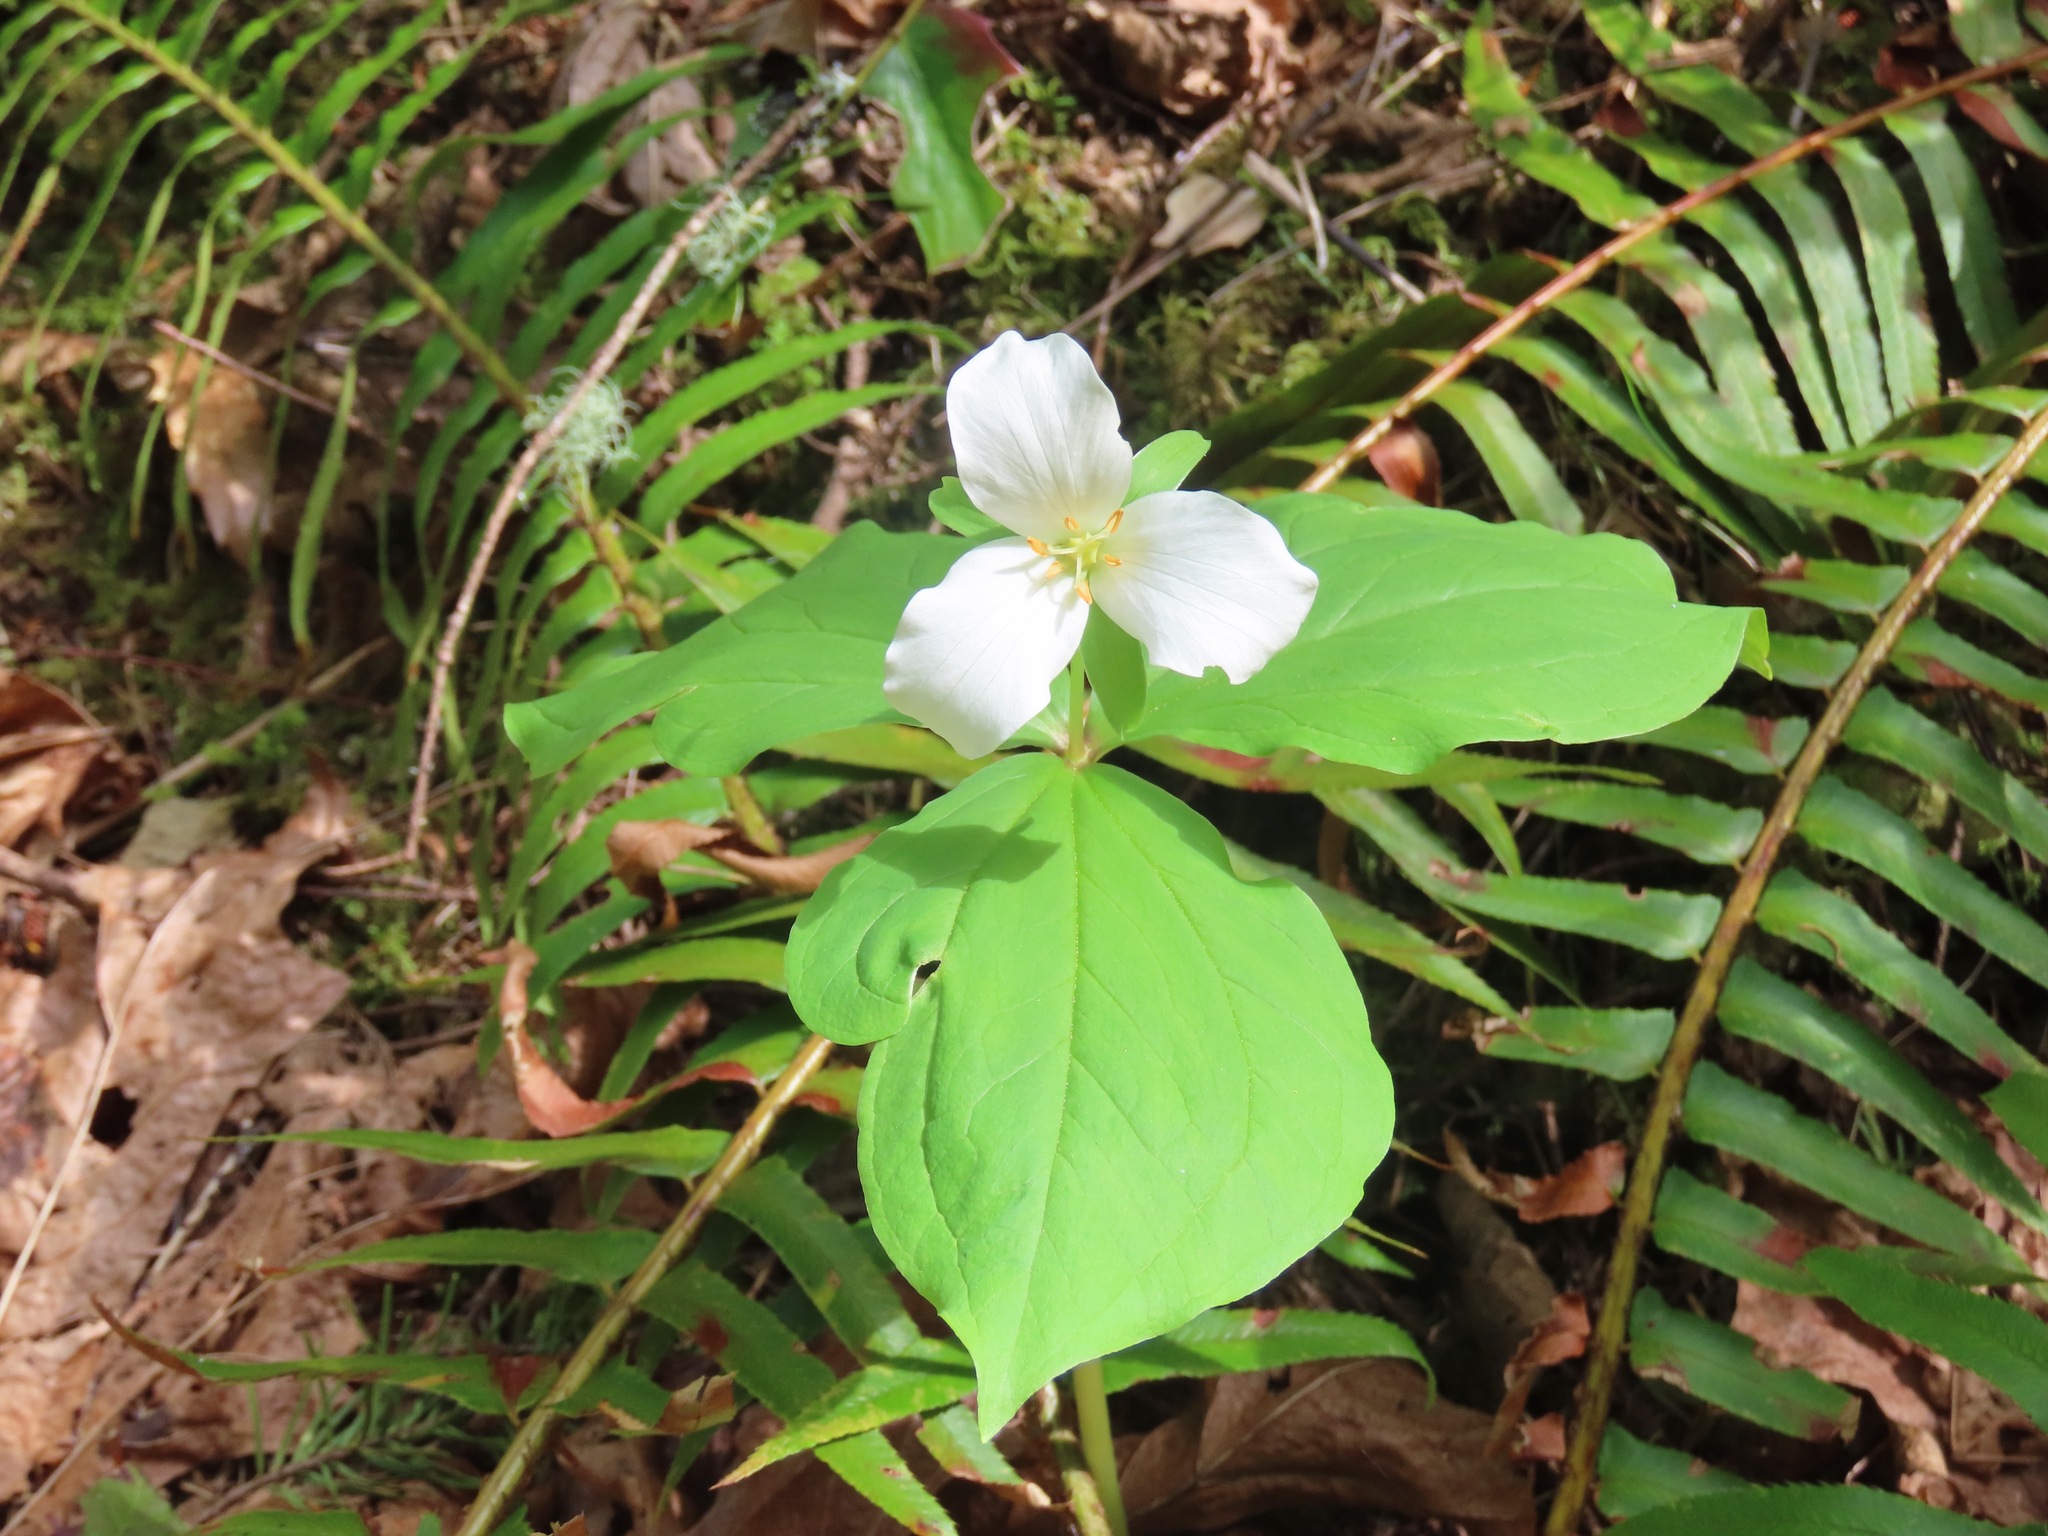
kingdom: Plantae
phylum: Tracheophyta
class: Liliopsida
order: Liliales
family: Melanthiaceae
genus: Trillium
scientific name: Trillium ovatum
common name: Pacific trillium
